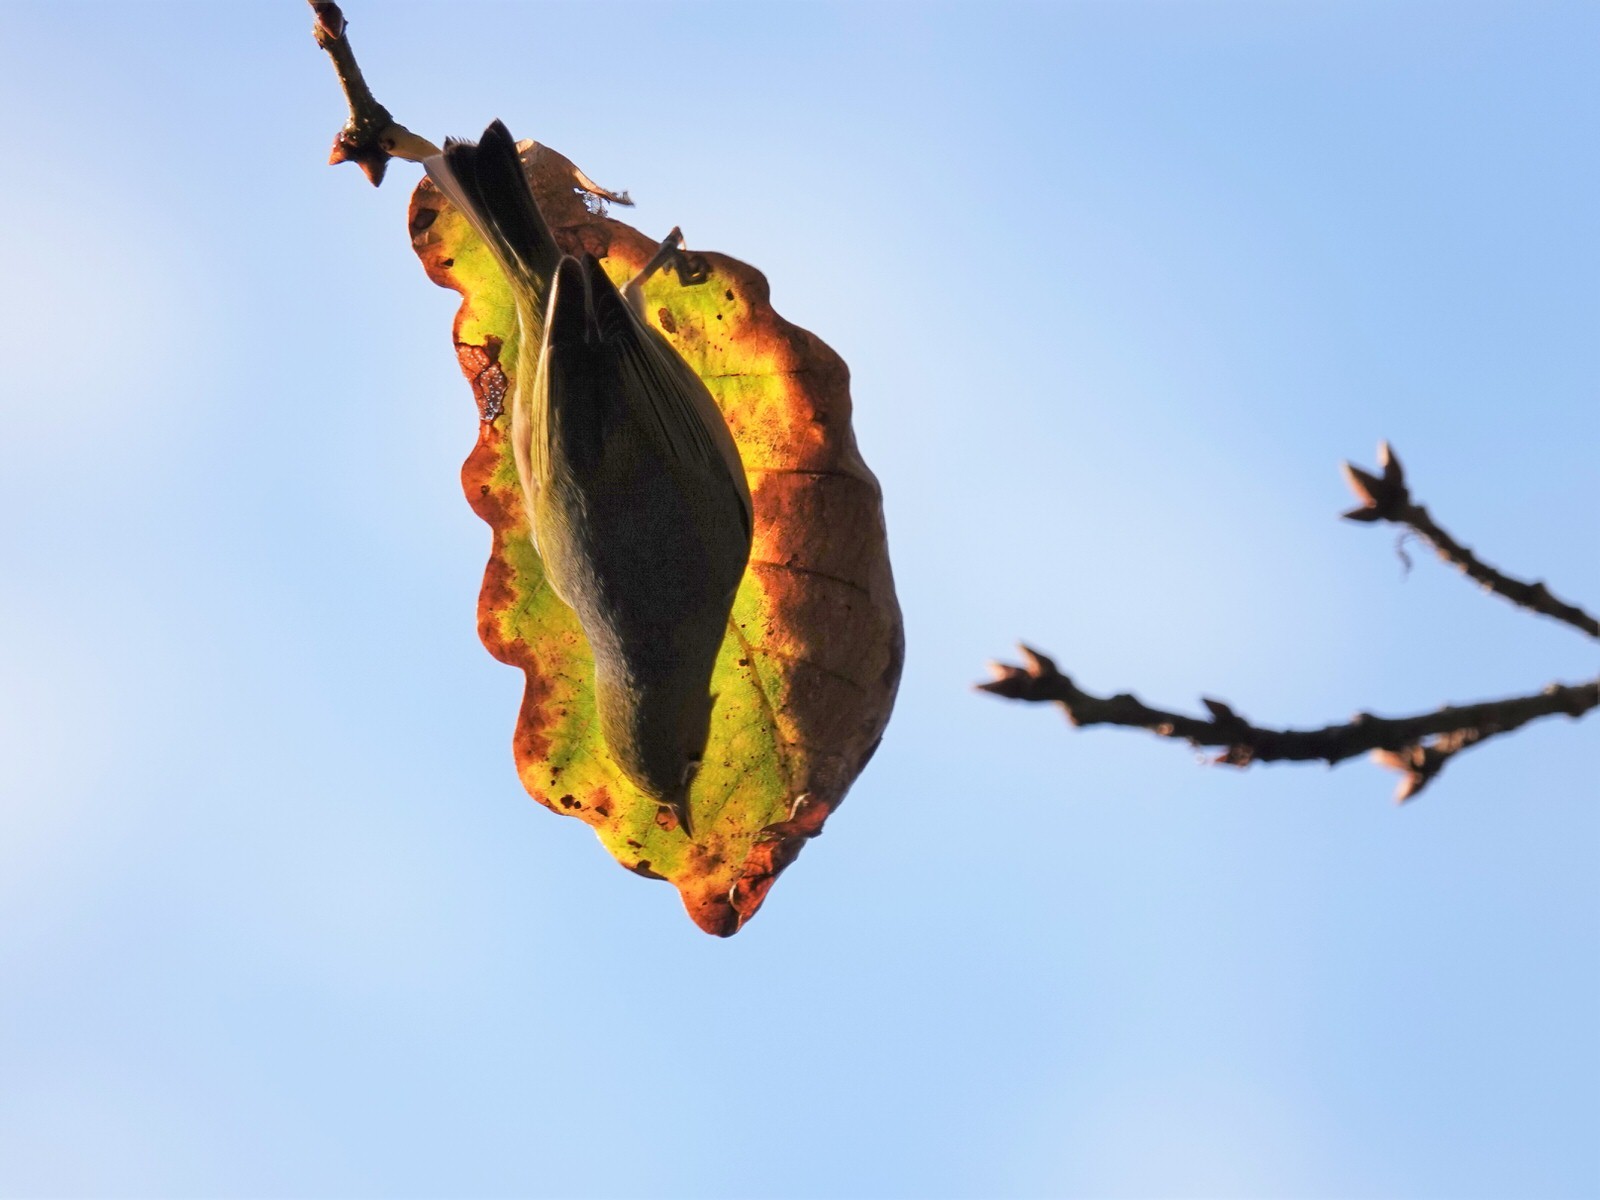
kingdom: Animalia
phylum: Chordata
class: Aves
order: Passeriformes
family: Zosteropidae
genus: Zosterops
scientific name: Zosterops lateralis
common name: Silvereye
